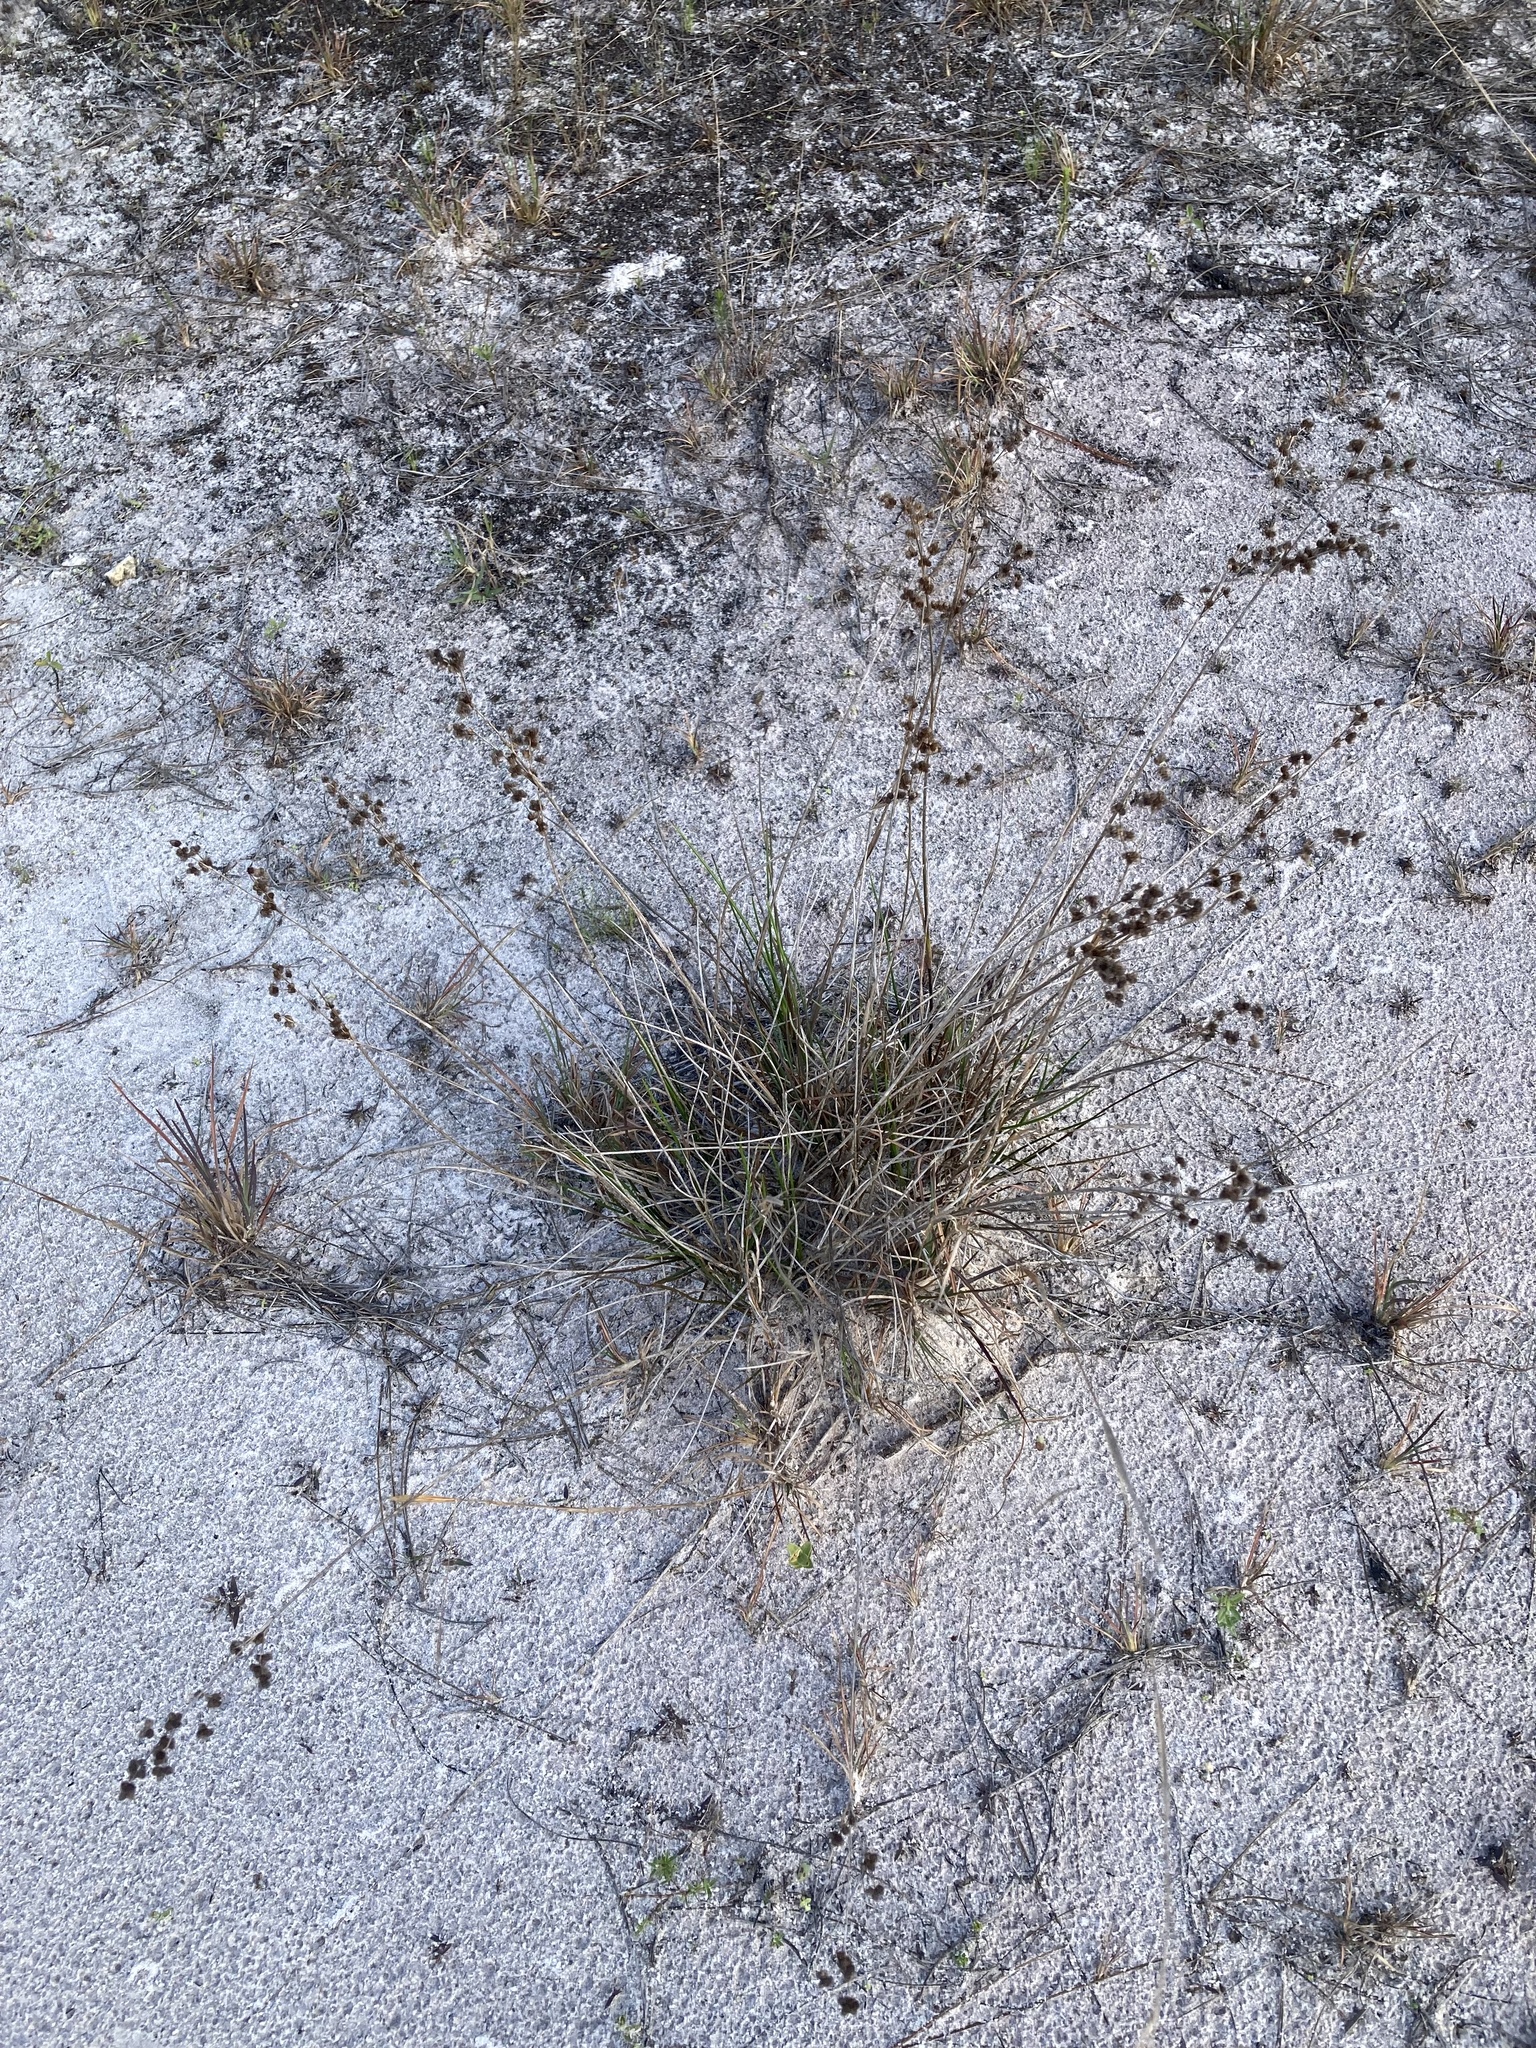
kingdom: Plantae
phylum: Tracheophyta
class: Liliopsida
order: Poales
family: Juncaceae
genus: Juncus
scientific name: Juncus scirpoides
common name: Needlepod rush
